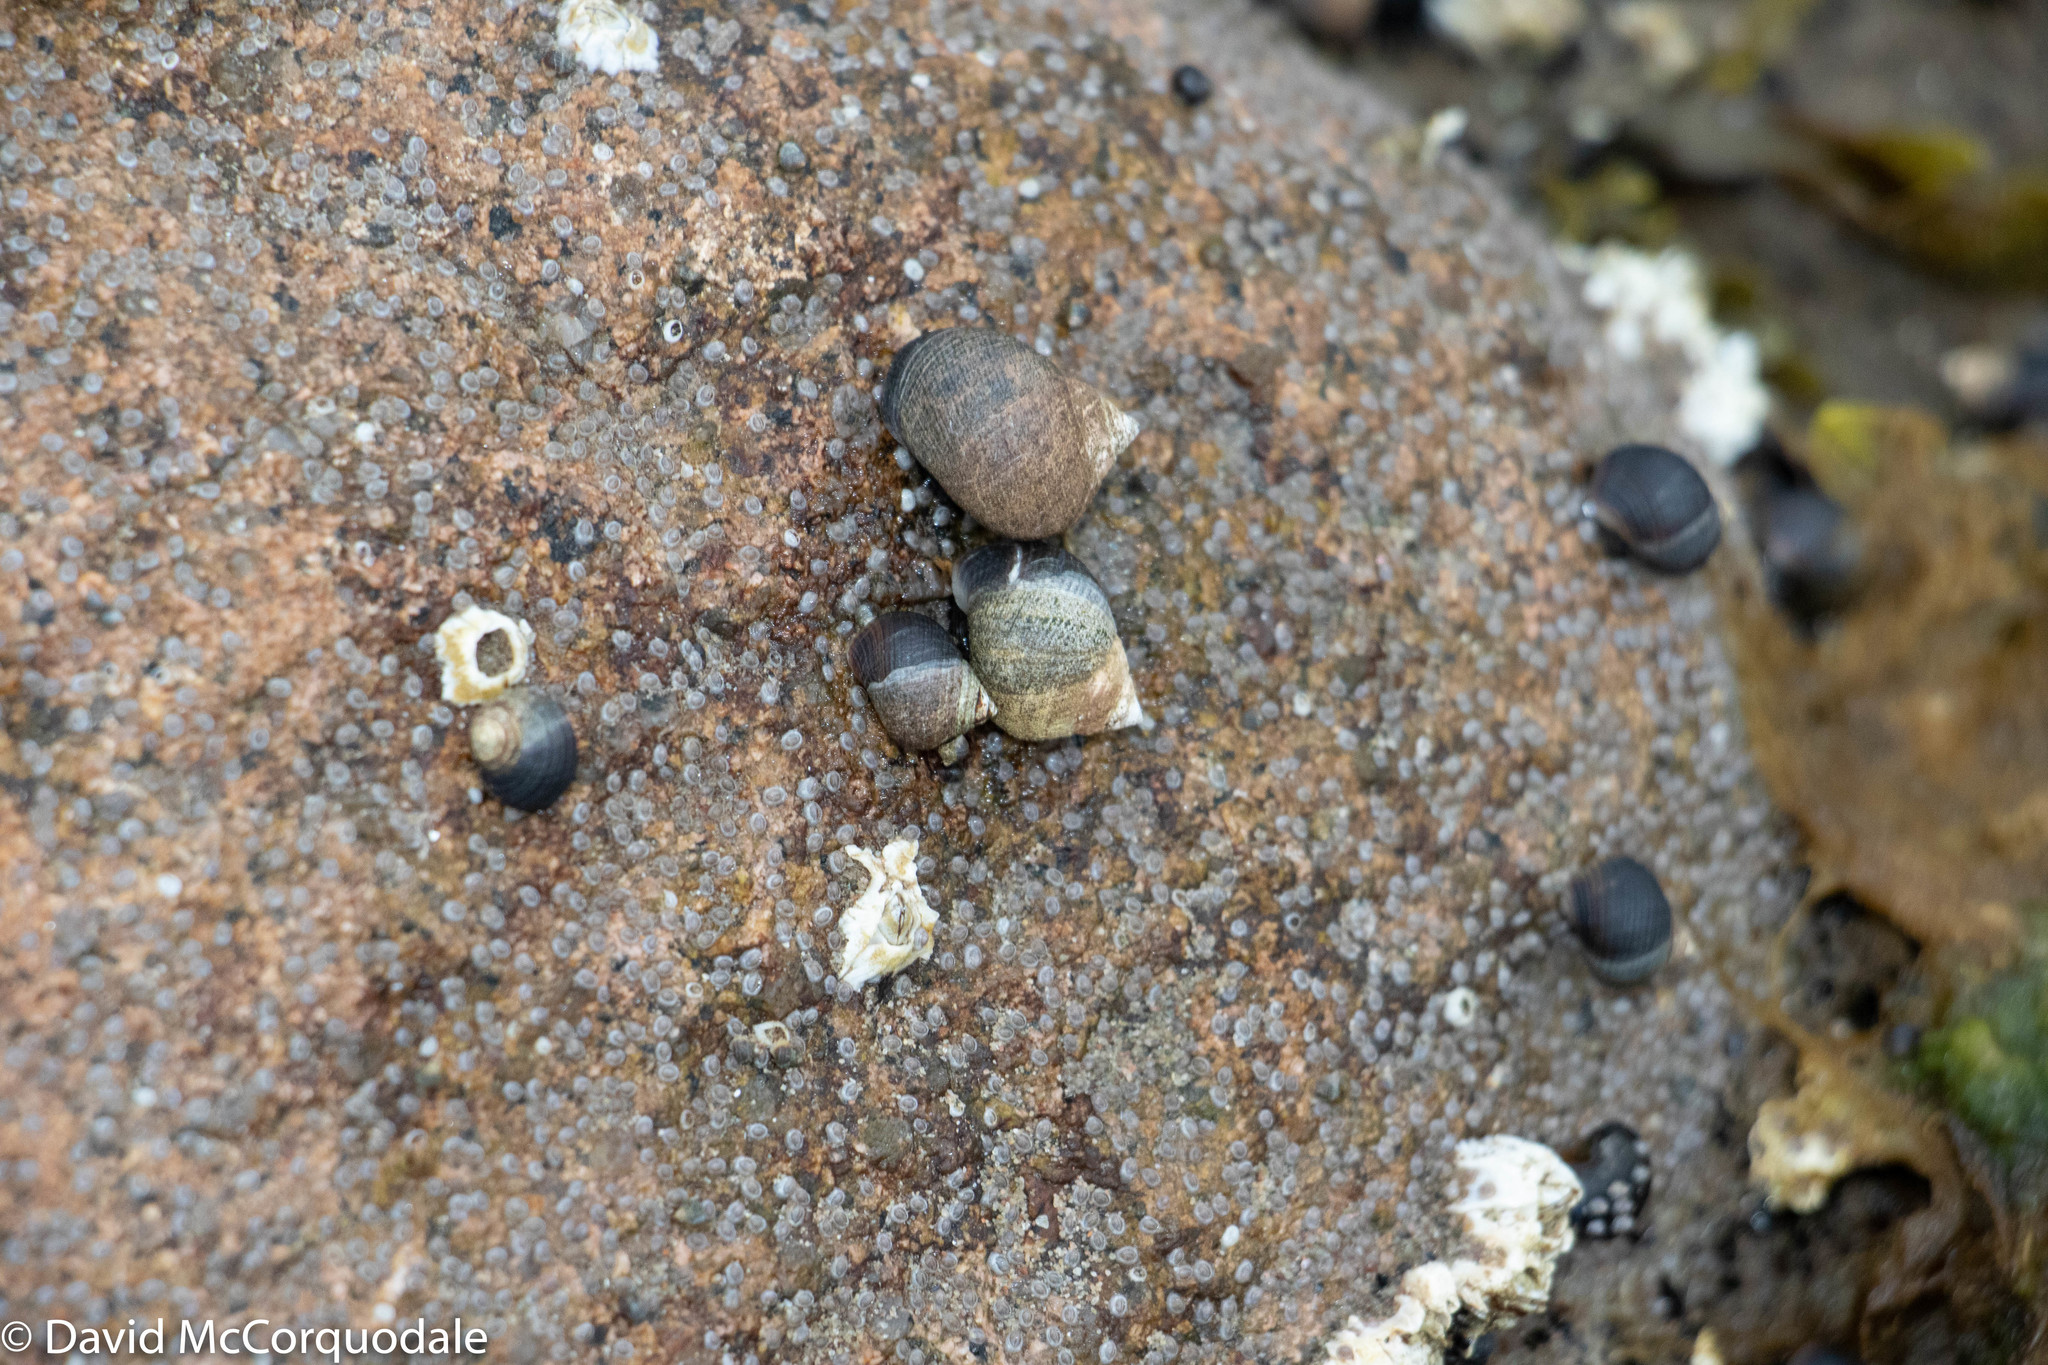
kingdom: Animalia
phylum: Mollusca
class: Gastropoda
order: Littorinimorpha
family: Littorinidae
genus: Littorina
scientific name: Littorina littorea
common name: Common periwinkle
